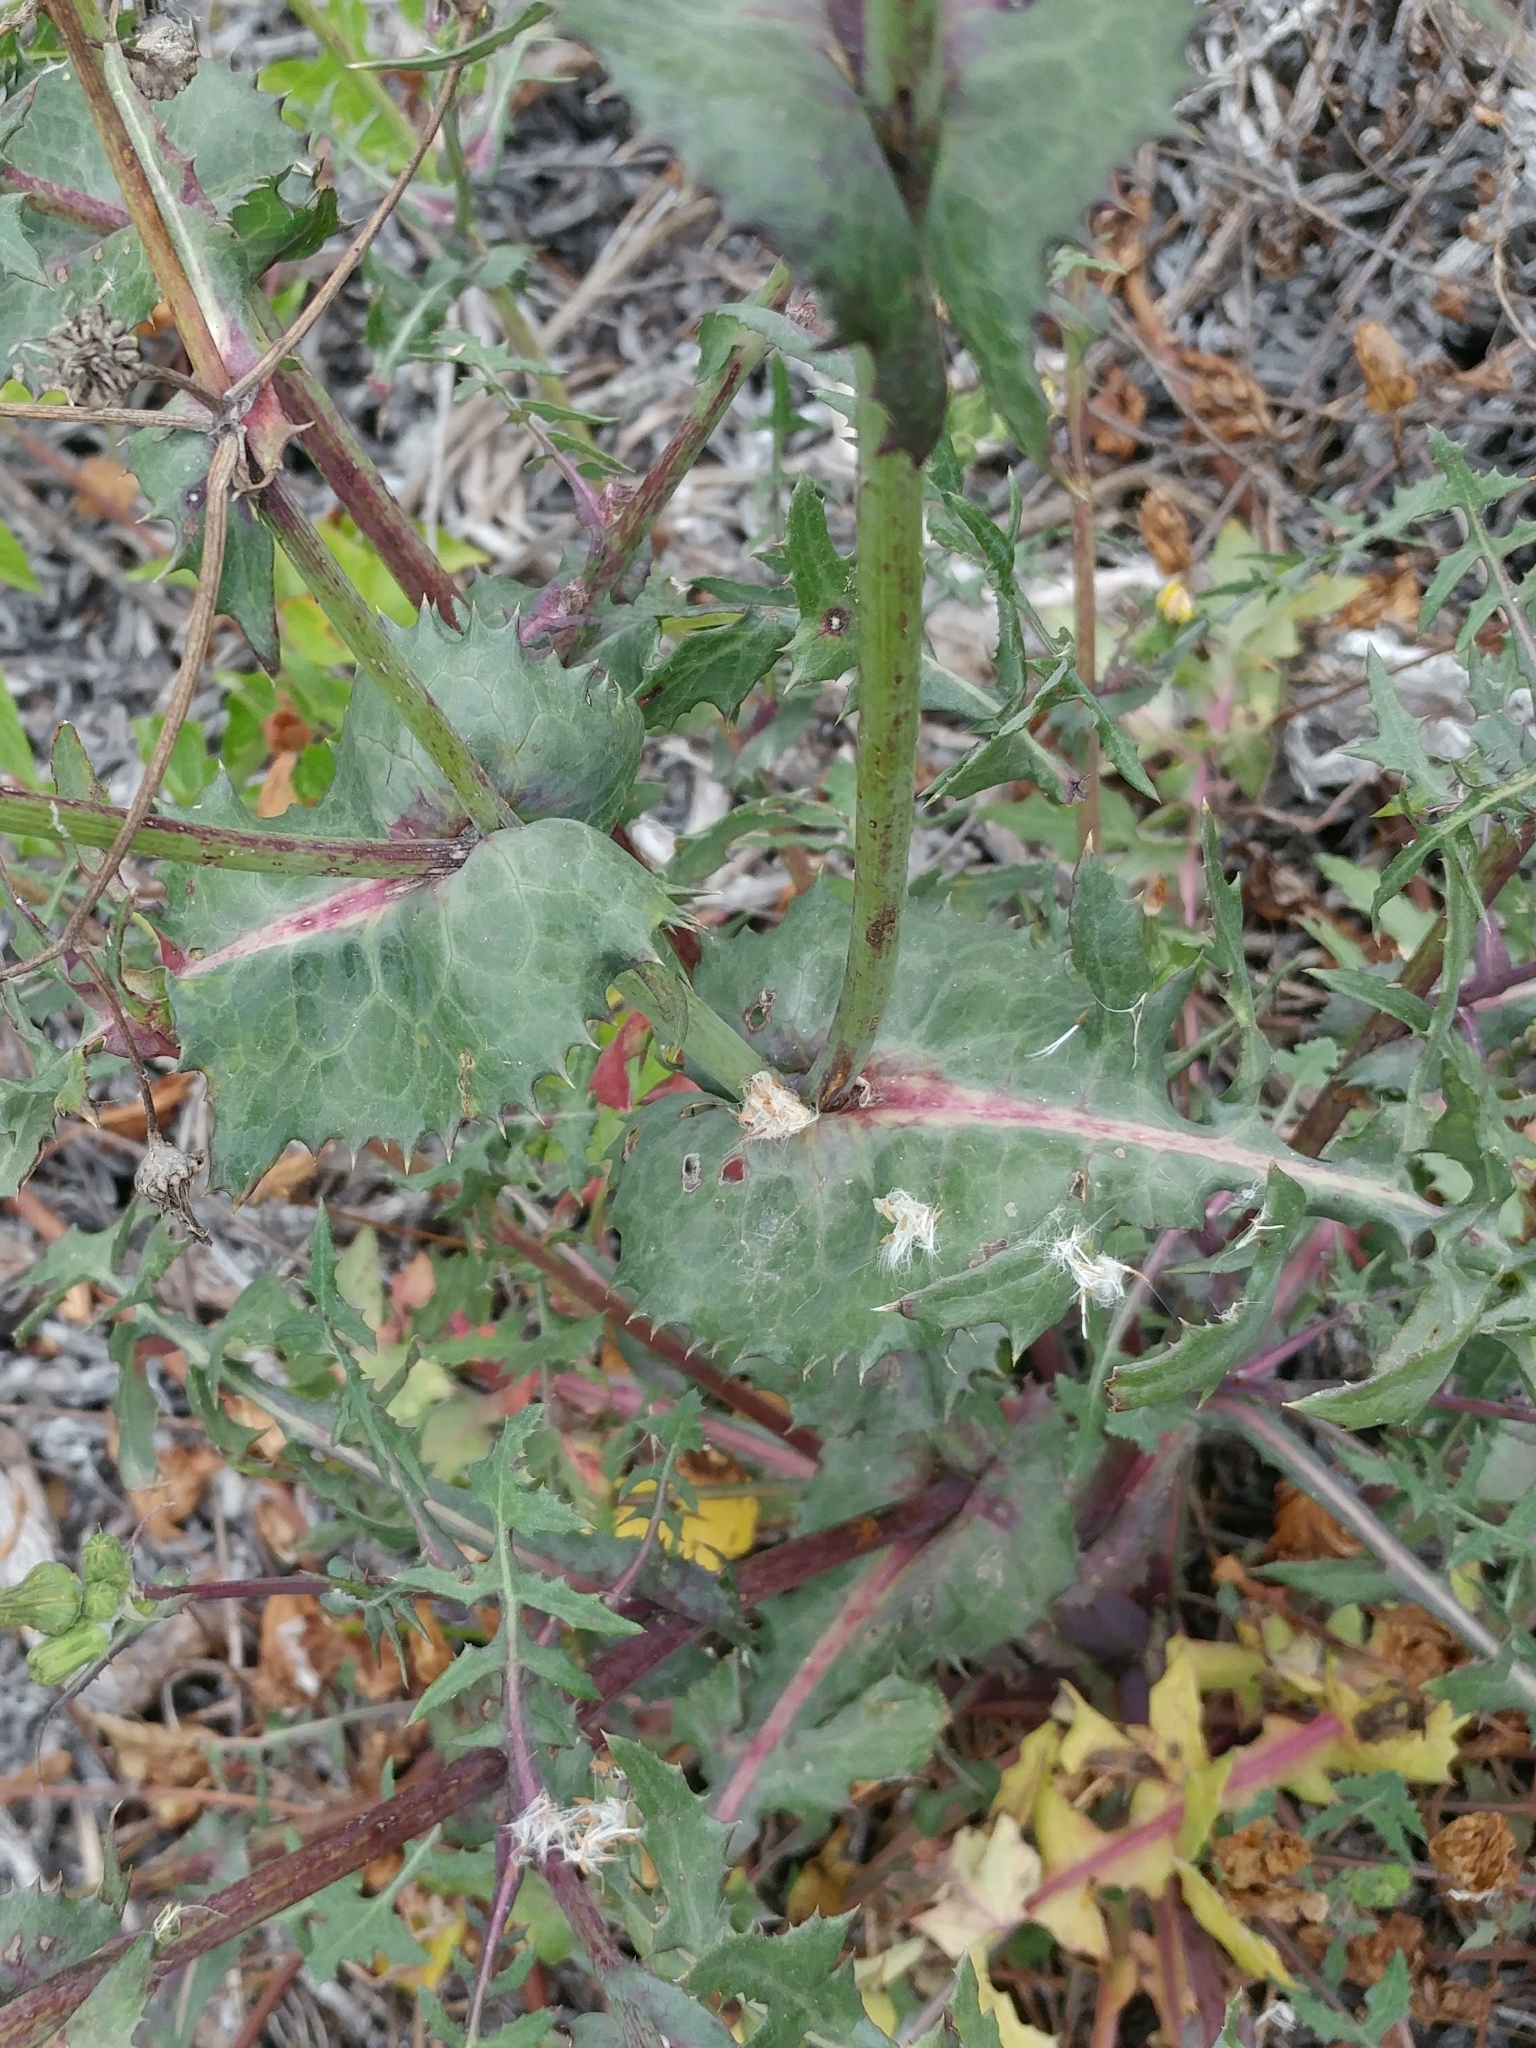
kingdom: Plantae
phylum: Tracheophyta
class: Magnoliopsida
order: Asterales
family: Asteraceae
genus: Sonchus
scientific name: Sonchus oleraceus
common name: Common sowthistle
